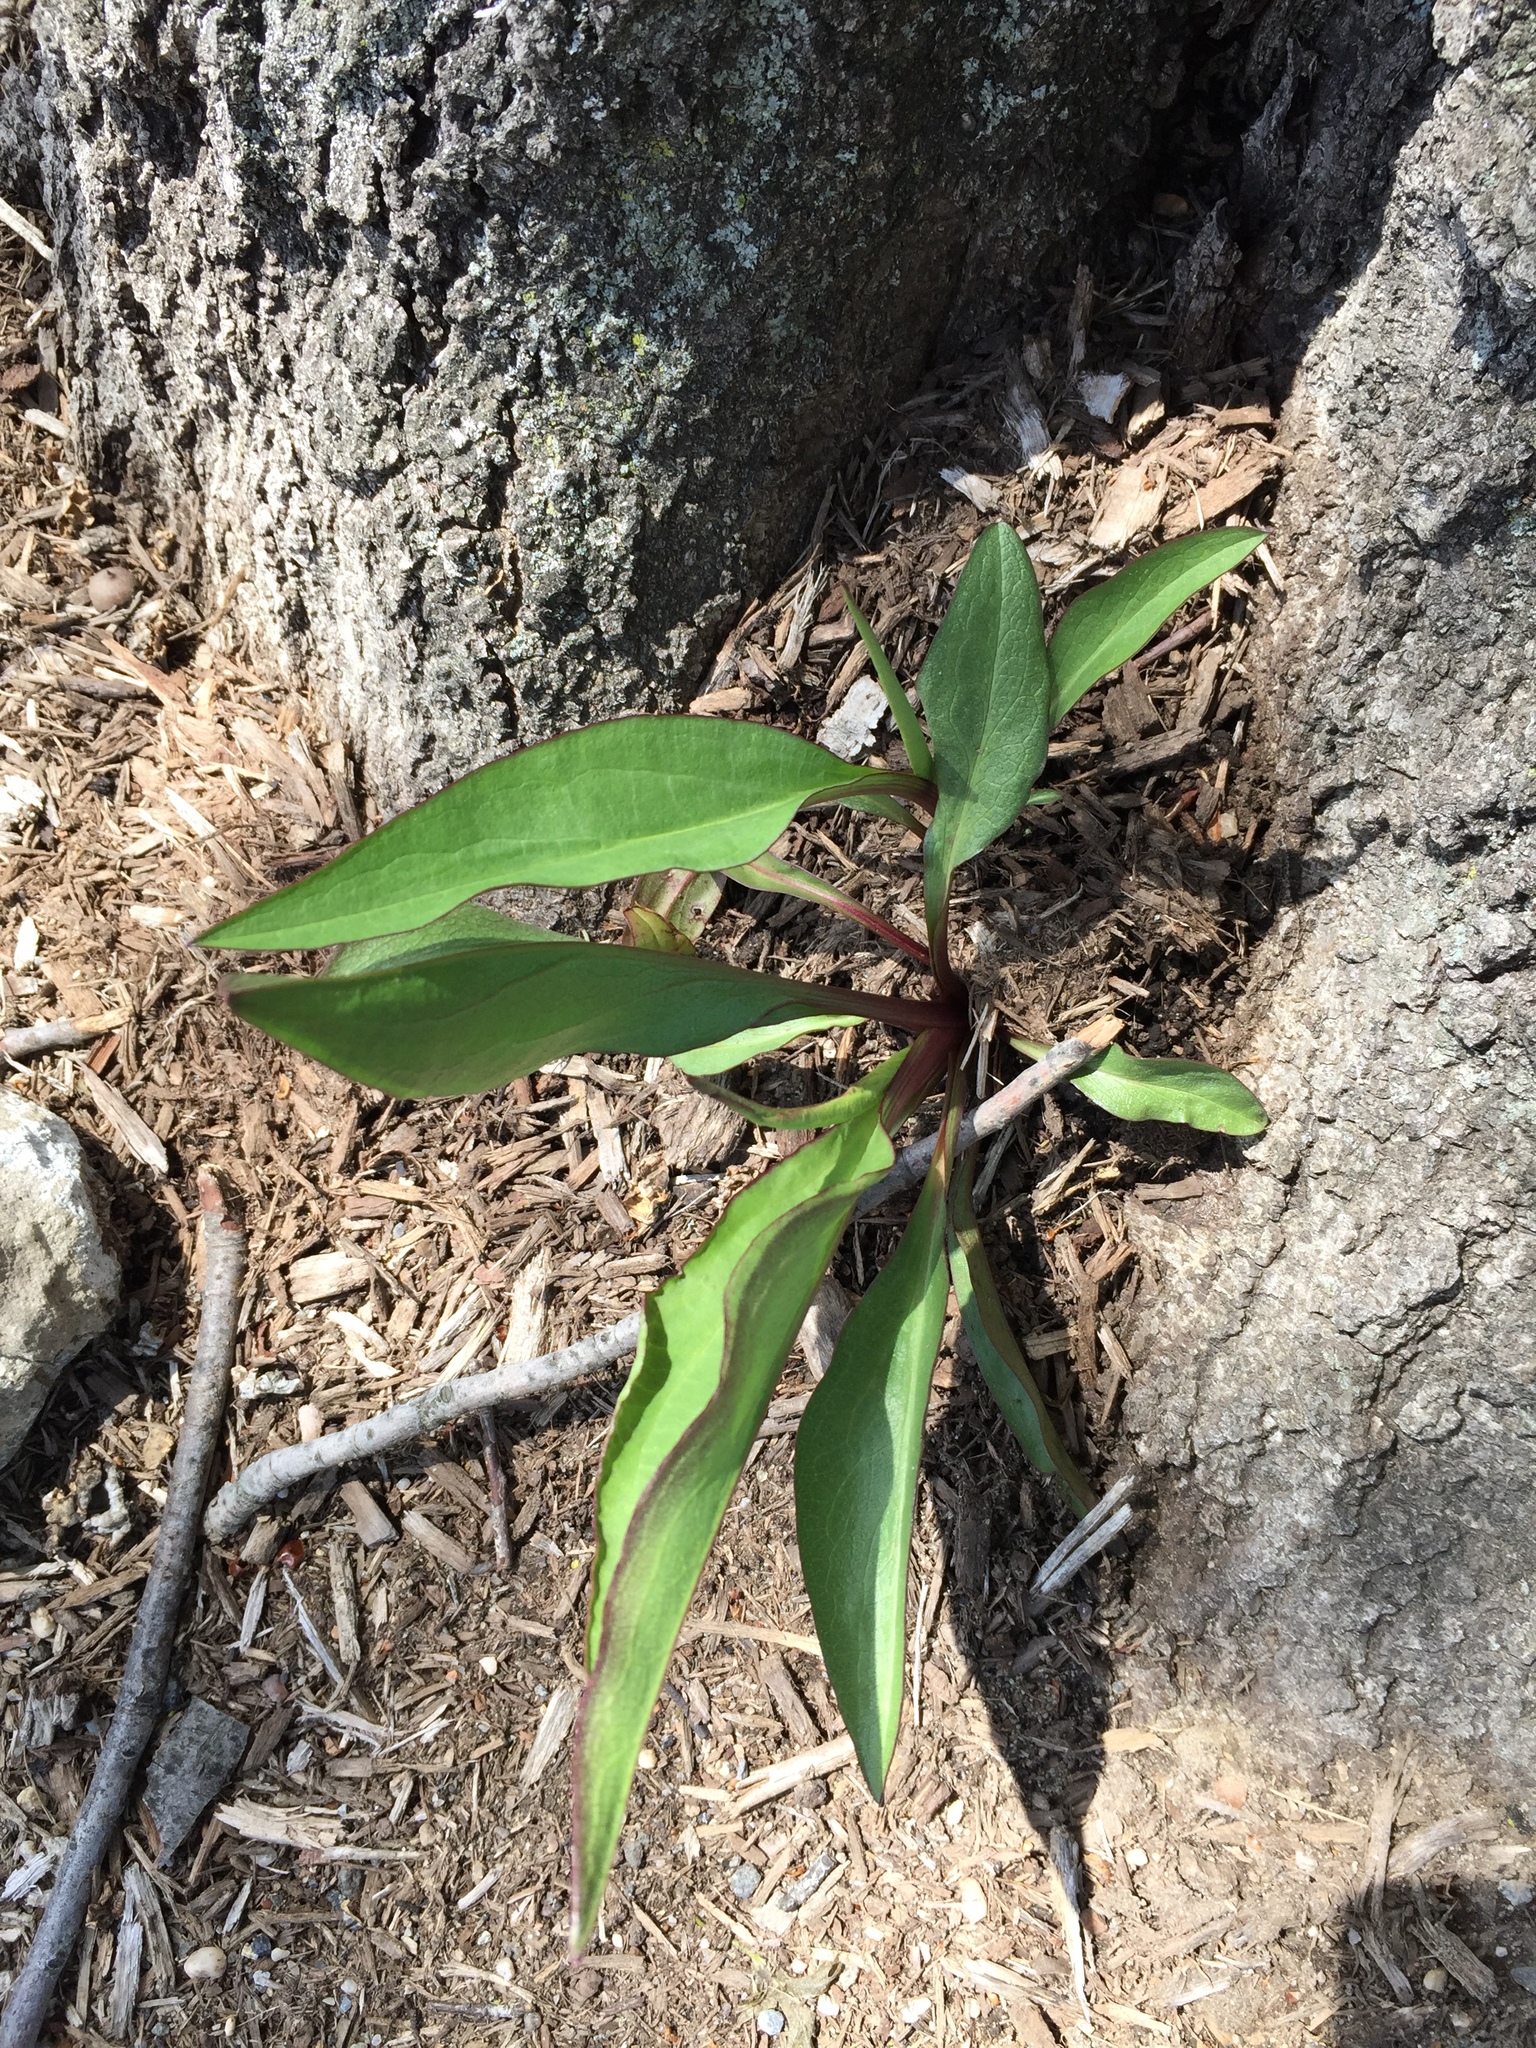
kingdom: Plantae
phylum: Tracheophyta
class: Magnoliopsida
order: Asterales
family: Asteraceae
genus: Solidago
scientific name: Solidago sempervirens
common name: Salt-marsh goldenrod
